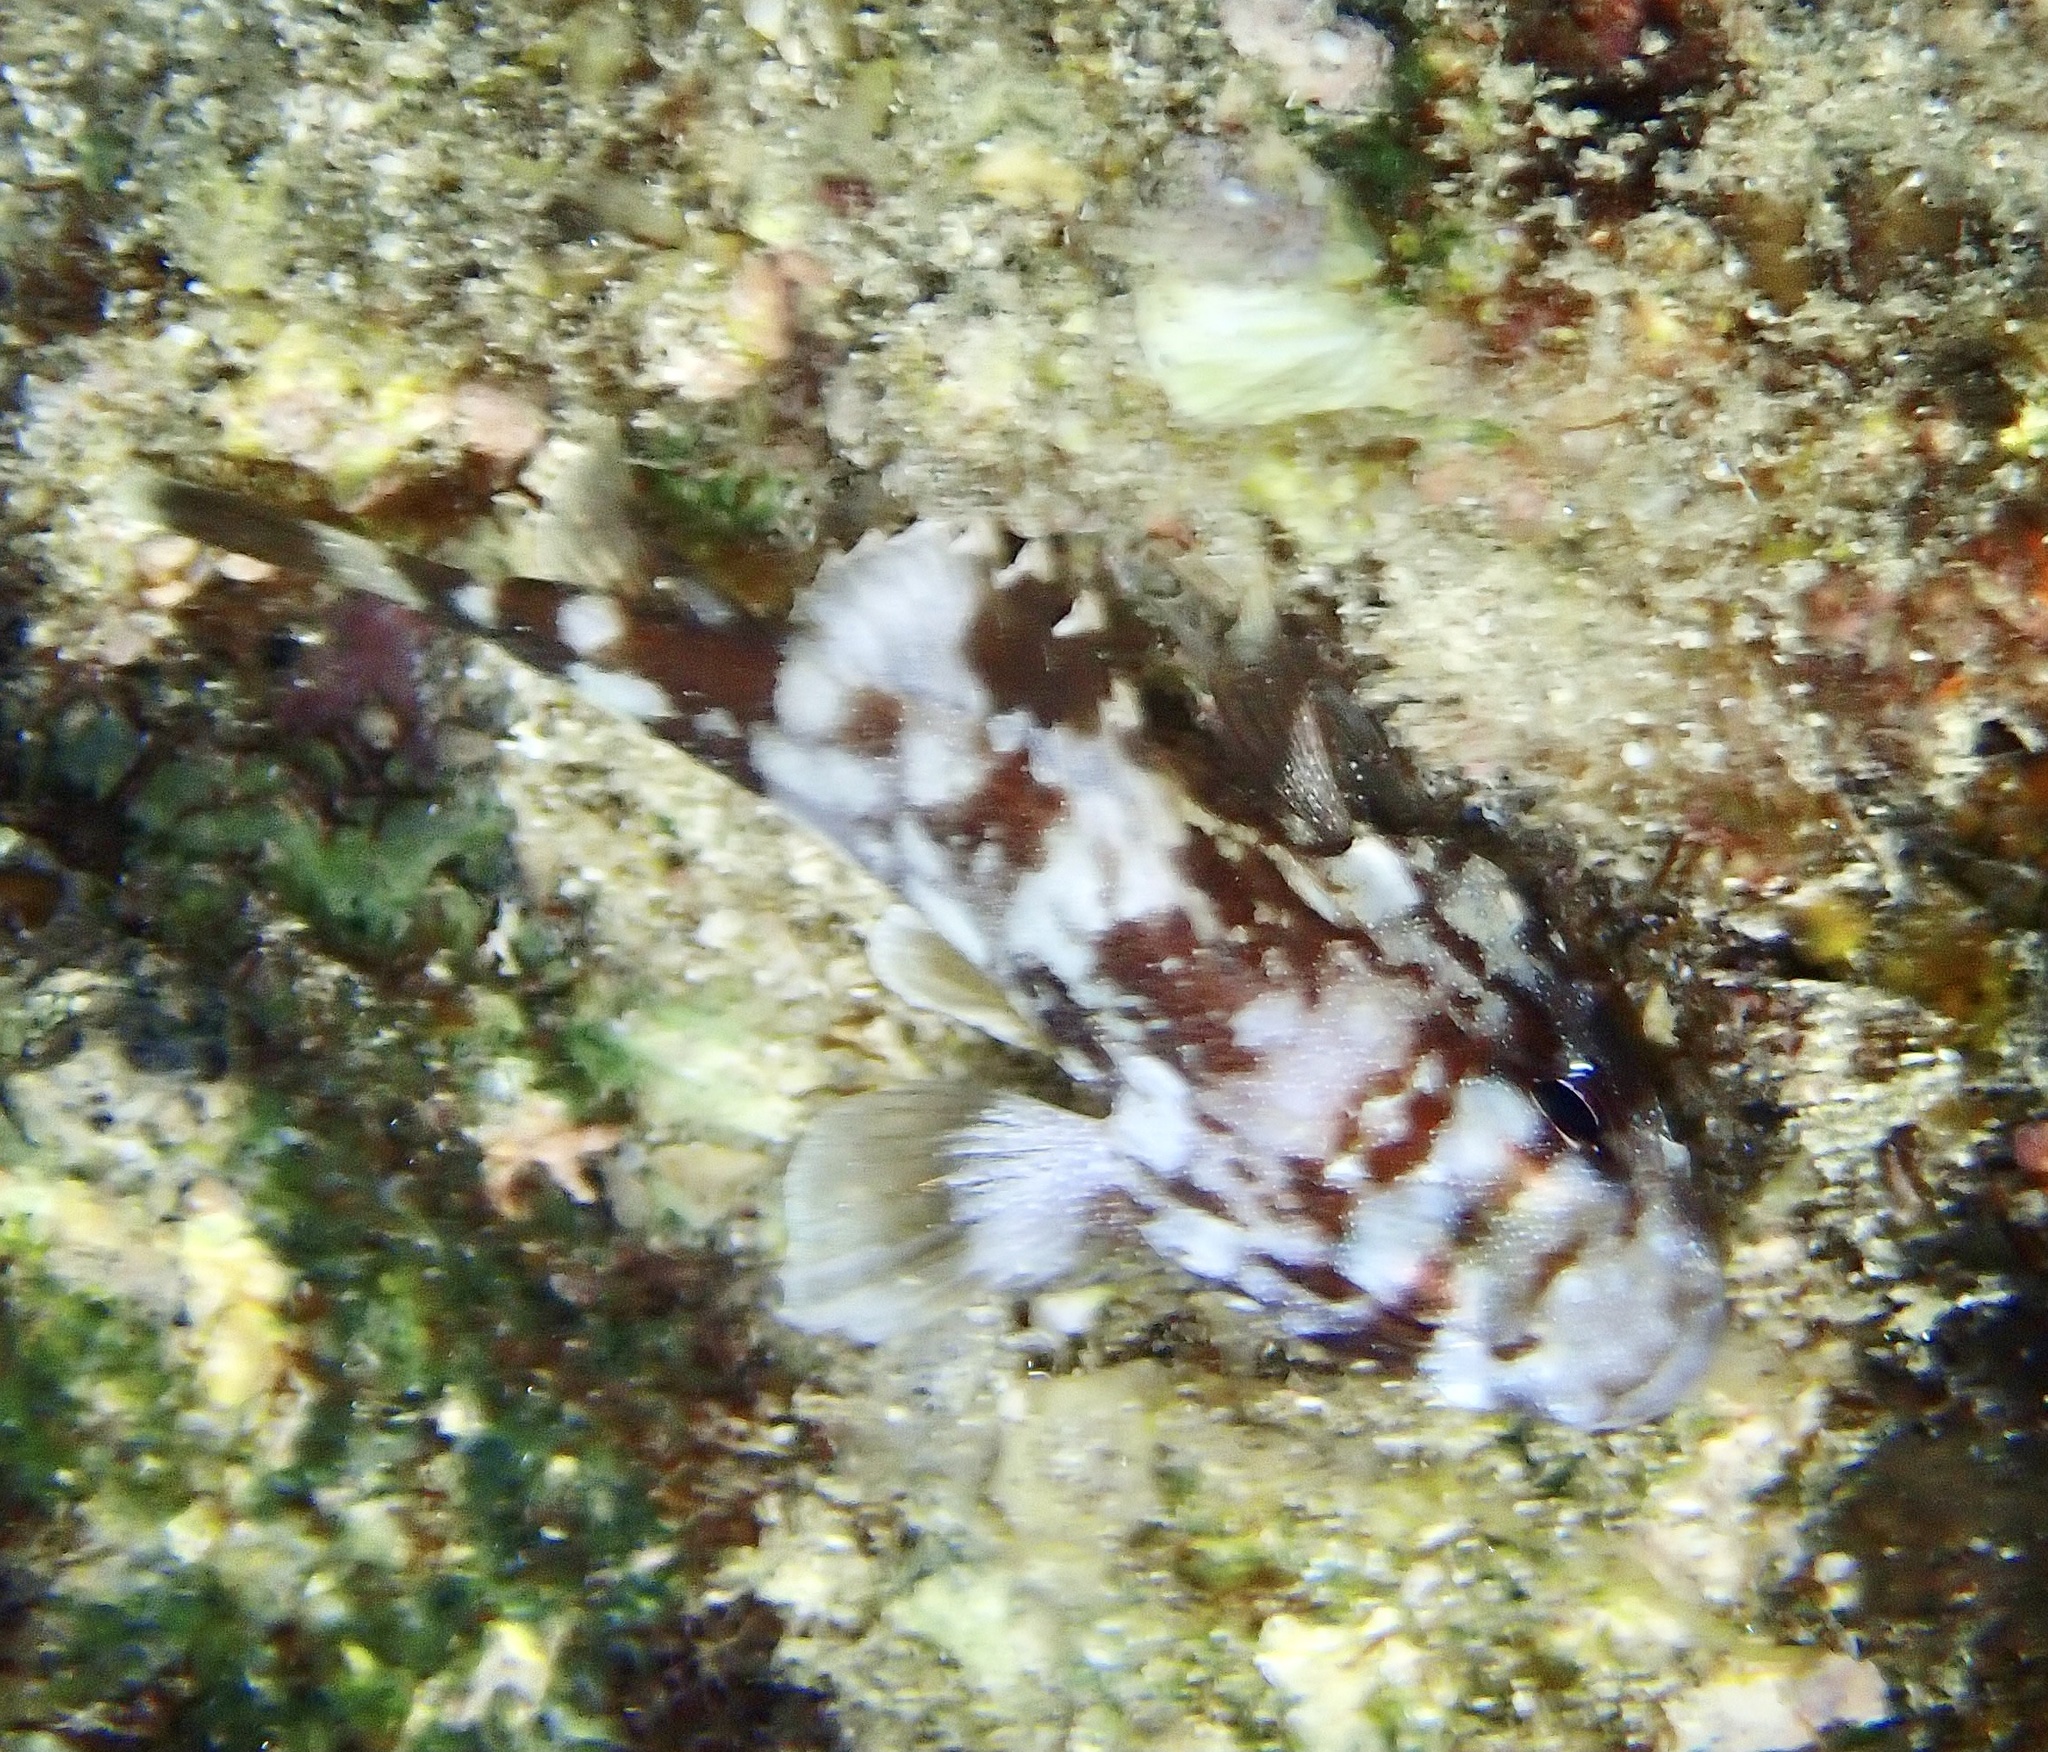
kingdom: Animalia
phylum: Chordata
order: Scorpaeniformes
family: Scorpaenidae
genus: Sebastapistes
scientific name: Sebastapistes cyanostigma
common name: Yellowspotted scorpionfish
